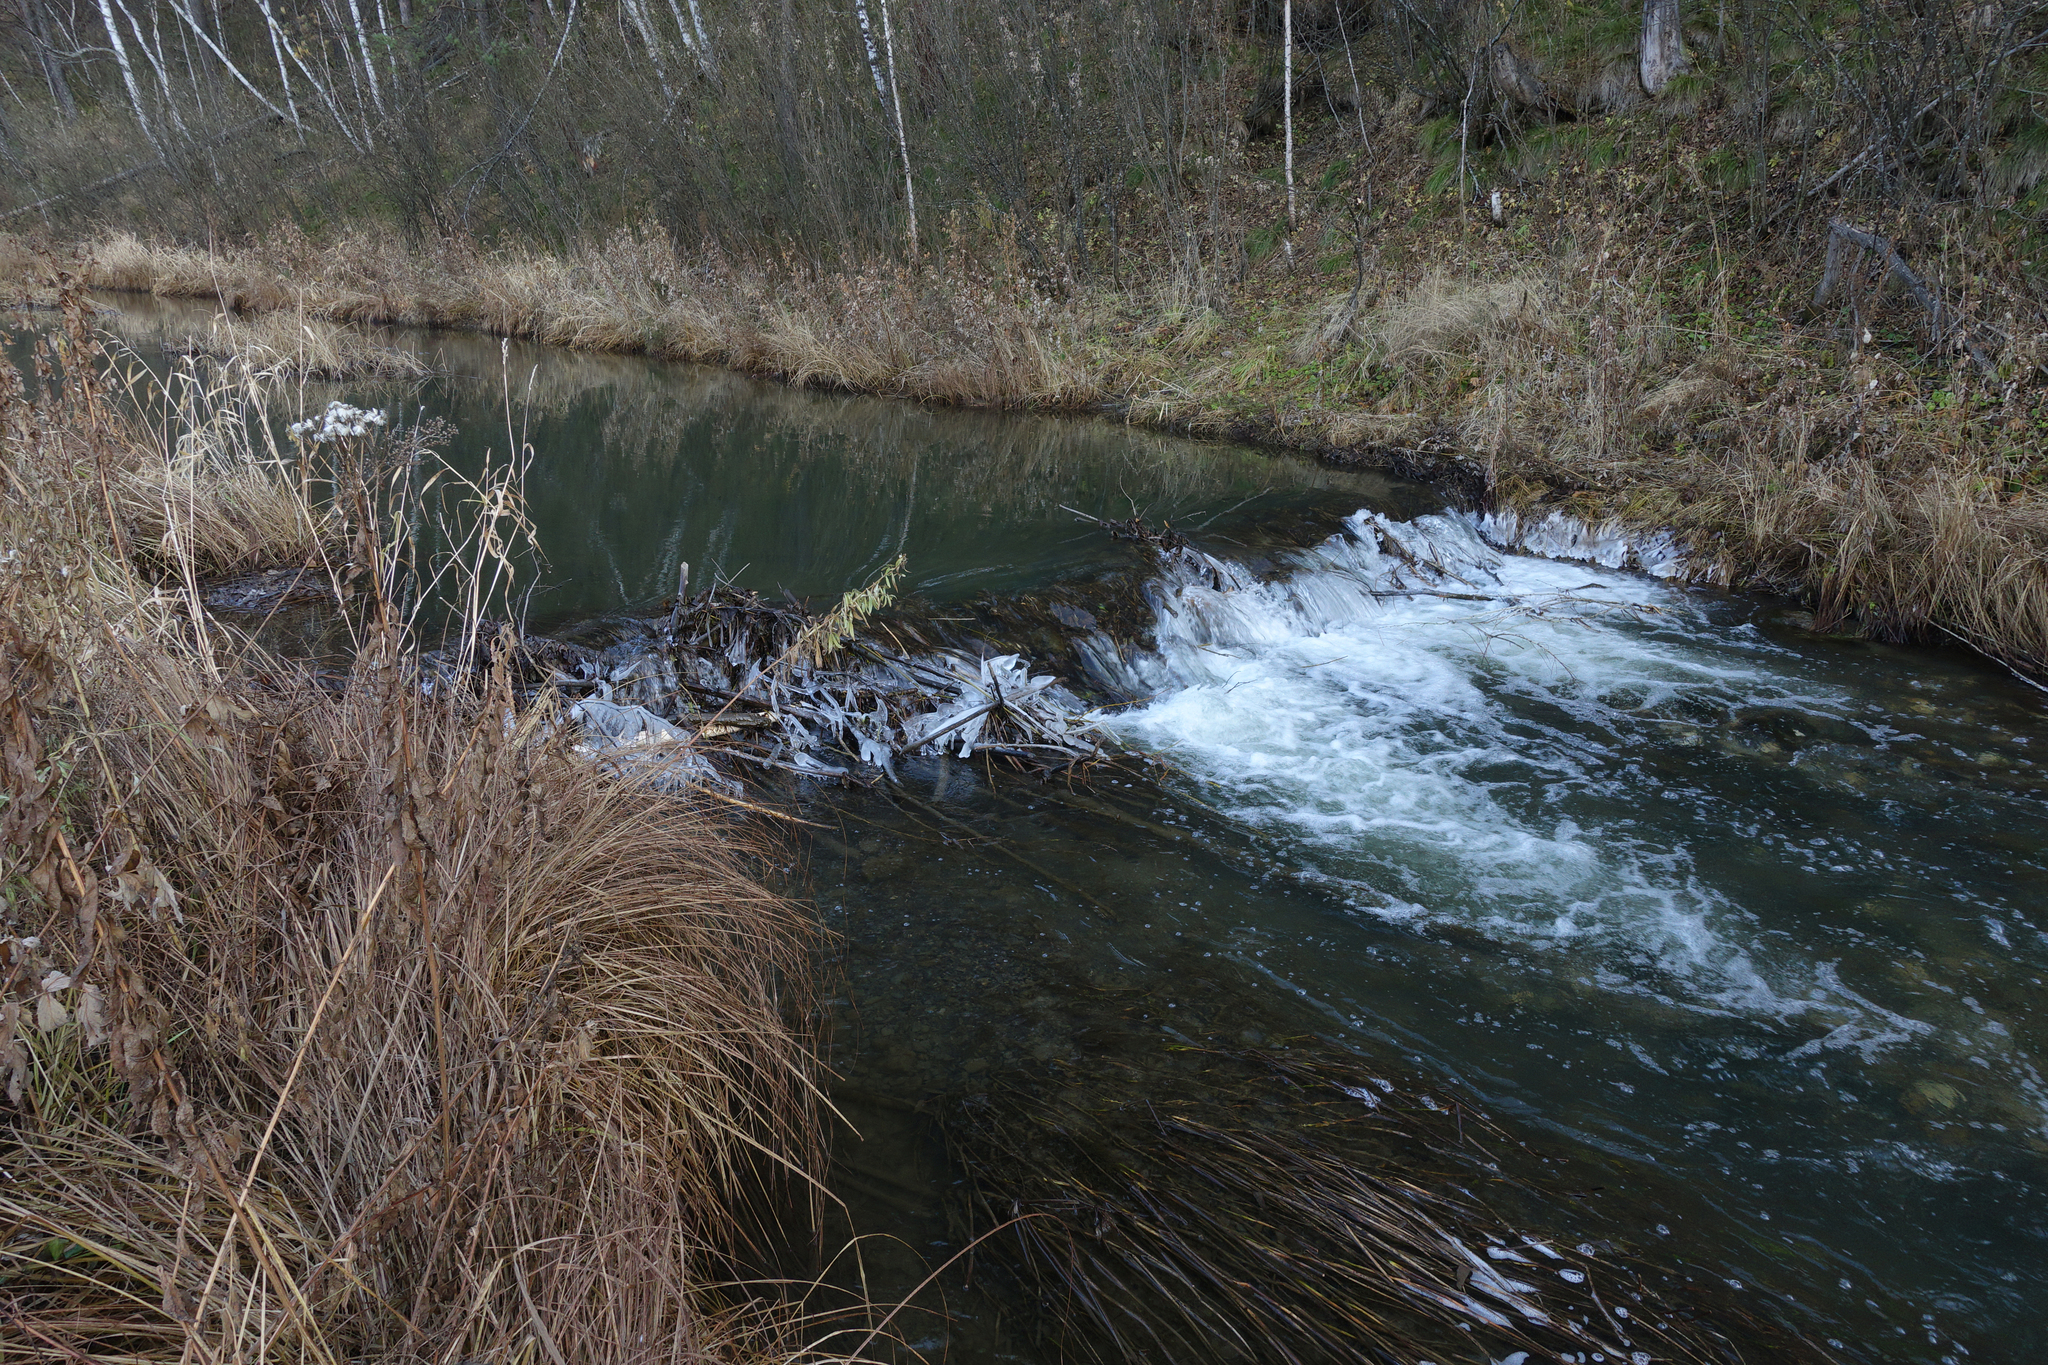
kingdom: Animalia
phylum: Chordata
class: Mammalia
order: Rodentia
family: Castoridae
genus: Castor
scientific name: Castor fiber
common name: Eurasian beaver
